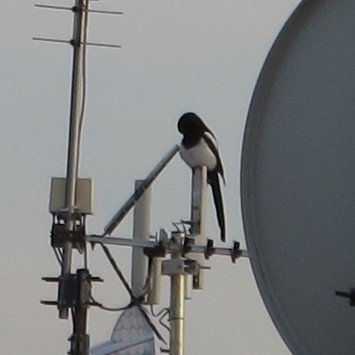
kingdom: Animalia
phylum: Chordata
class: Aves
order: Passeriformes
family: Corvidae
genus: Pica
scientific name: Pica pica
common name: Eurasian magpie
